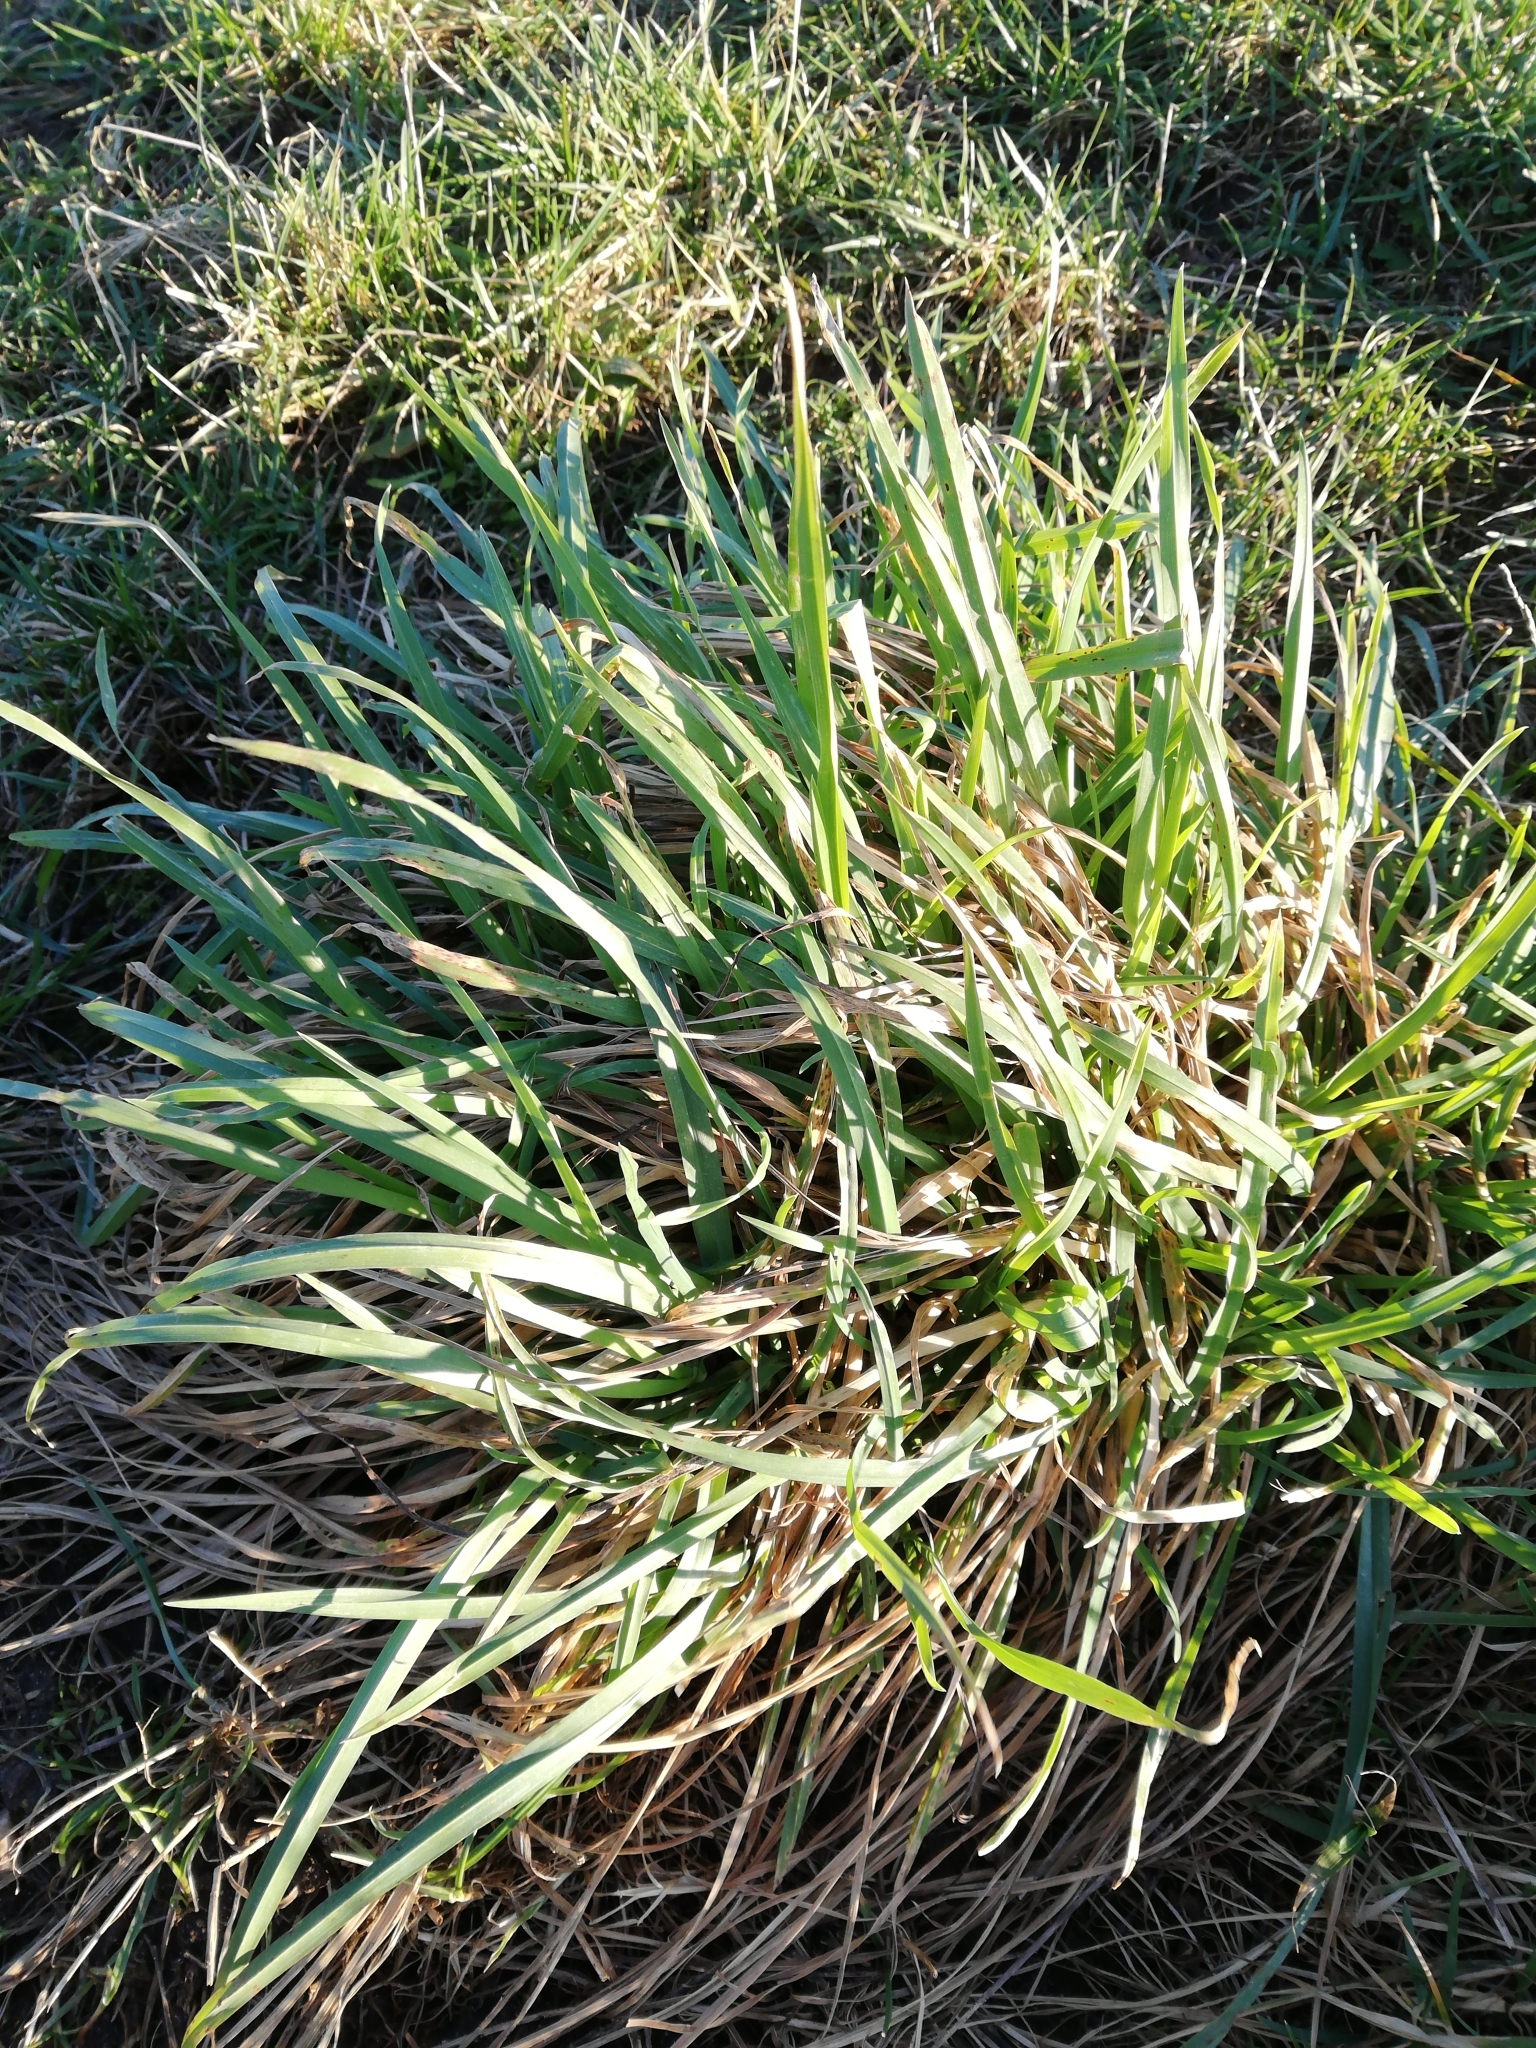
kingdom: Plantae
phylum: Tracheophyta
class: Liliopsida
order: Poales
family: Poaceae
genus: Dactylis
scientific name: Dactylis glomerata
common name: Orchardgrass
